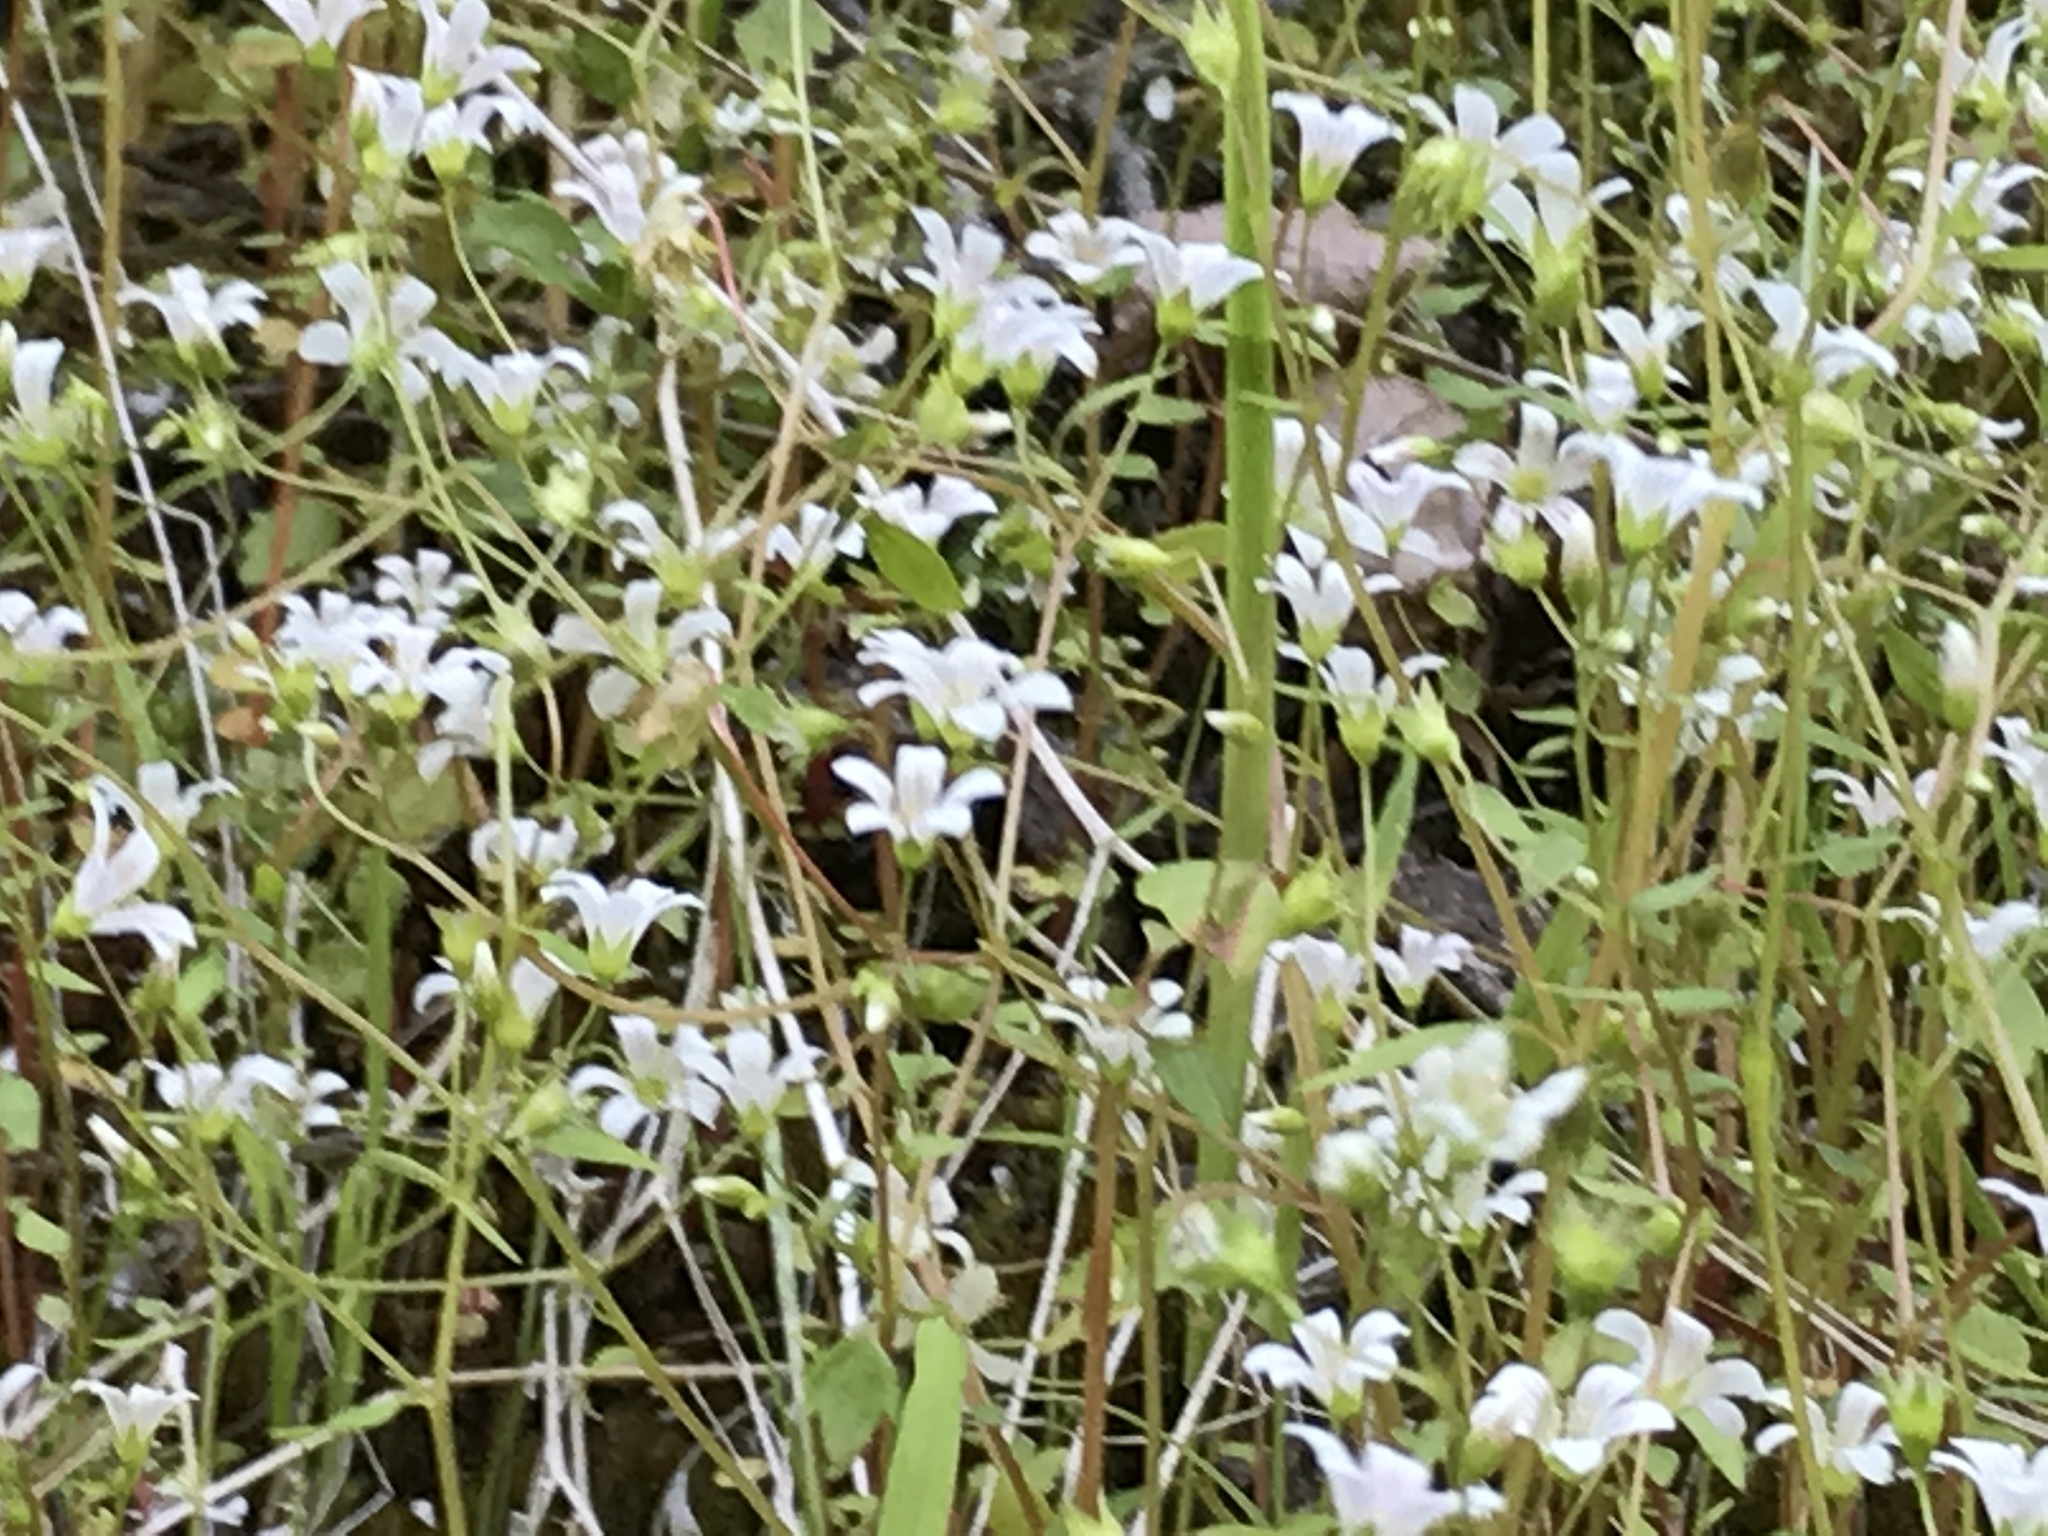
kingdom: Plantae
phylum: Tracheophyta
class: Magnoliopsida
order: Saxifragales
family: Saxifragaceae
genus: Cascadia
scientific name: Cascadia nuttallii
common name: Nuttall's saxifrage
